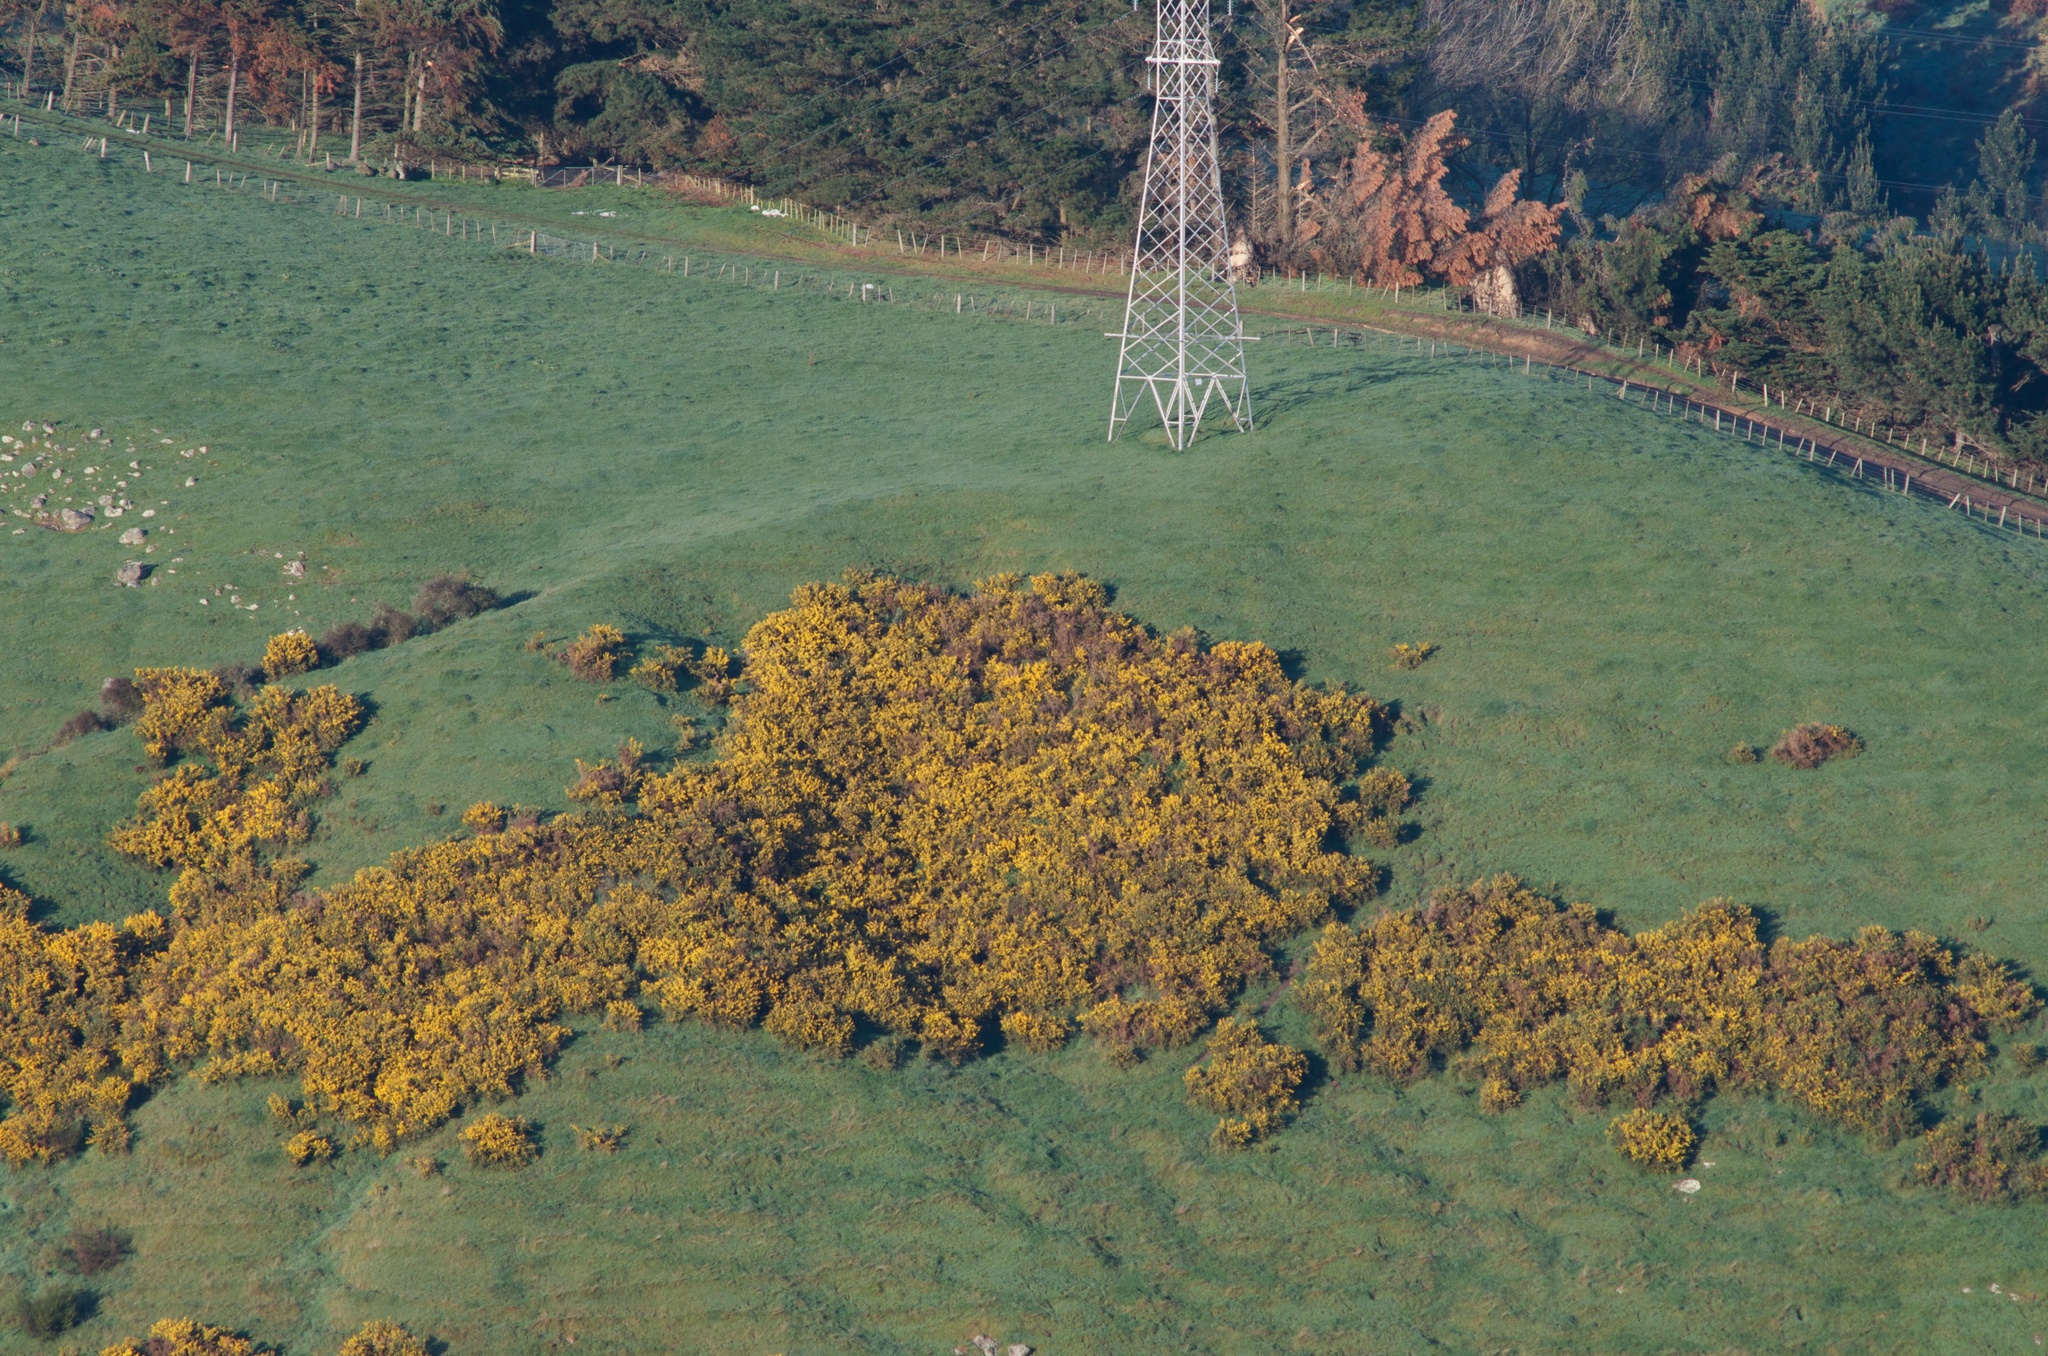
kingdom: Plantae
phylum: Tracheophyta
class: Magnoliopsida
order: Fabales
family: Fabaceae
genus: Ulex
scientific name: Ulex europaeus
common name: Common gorse
